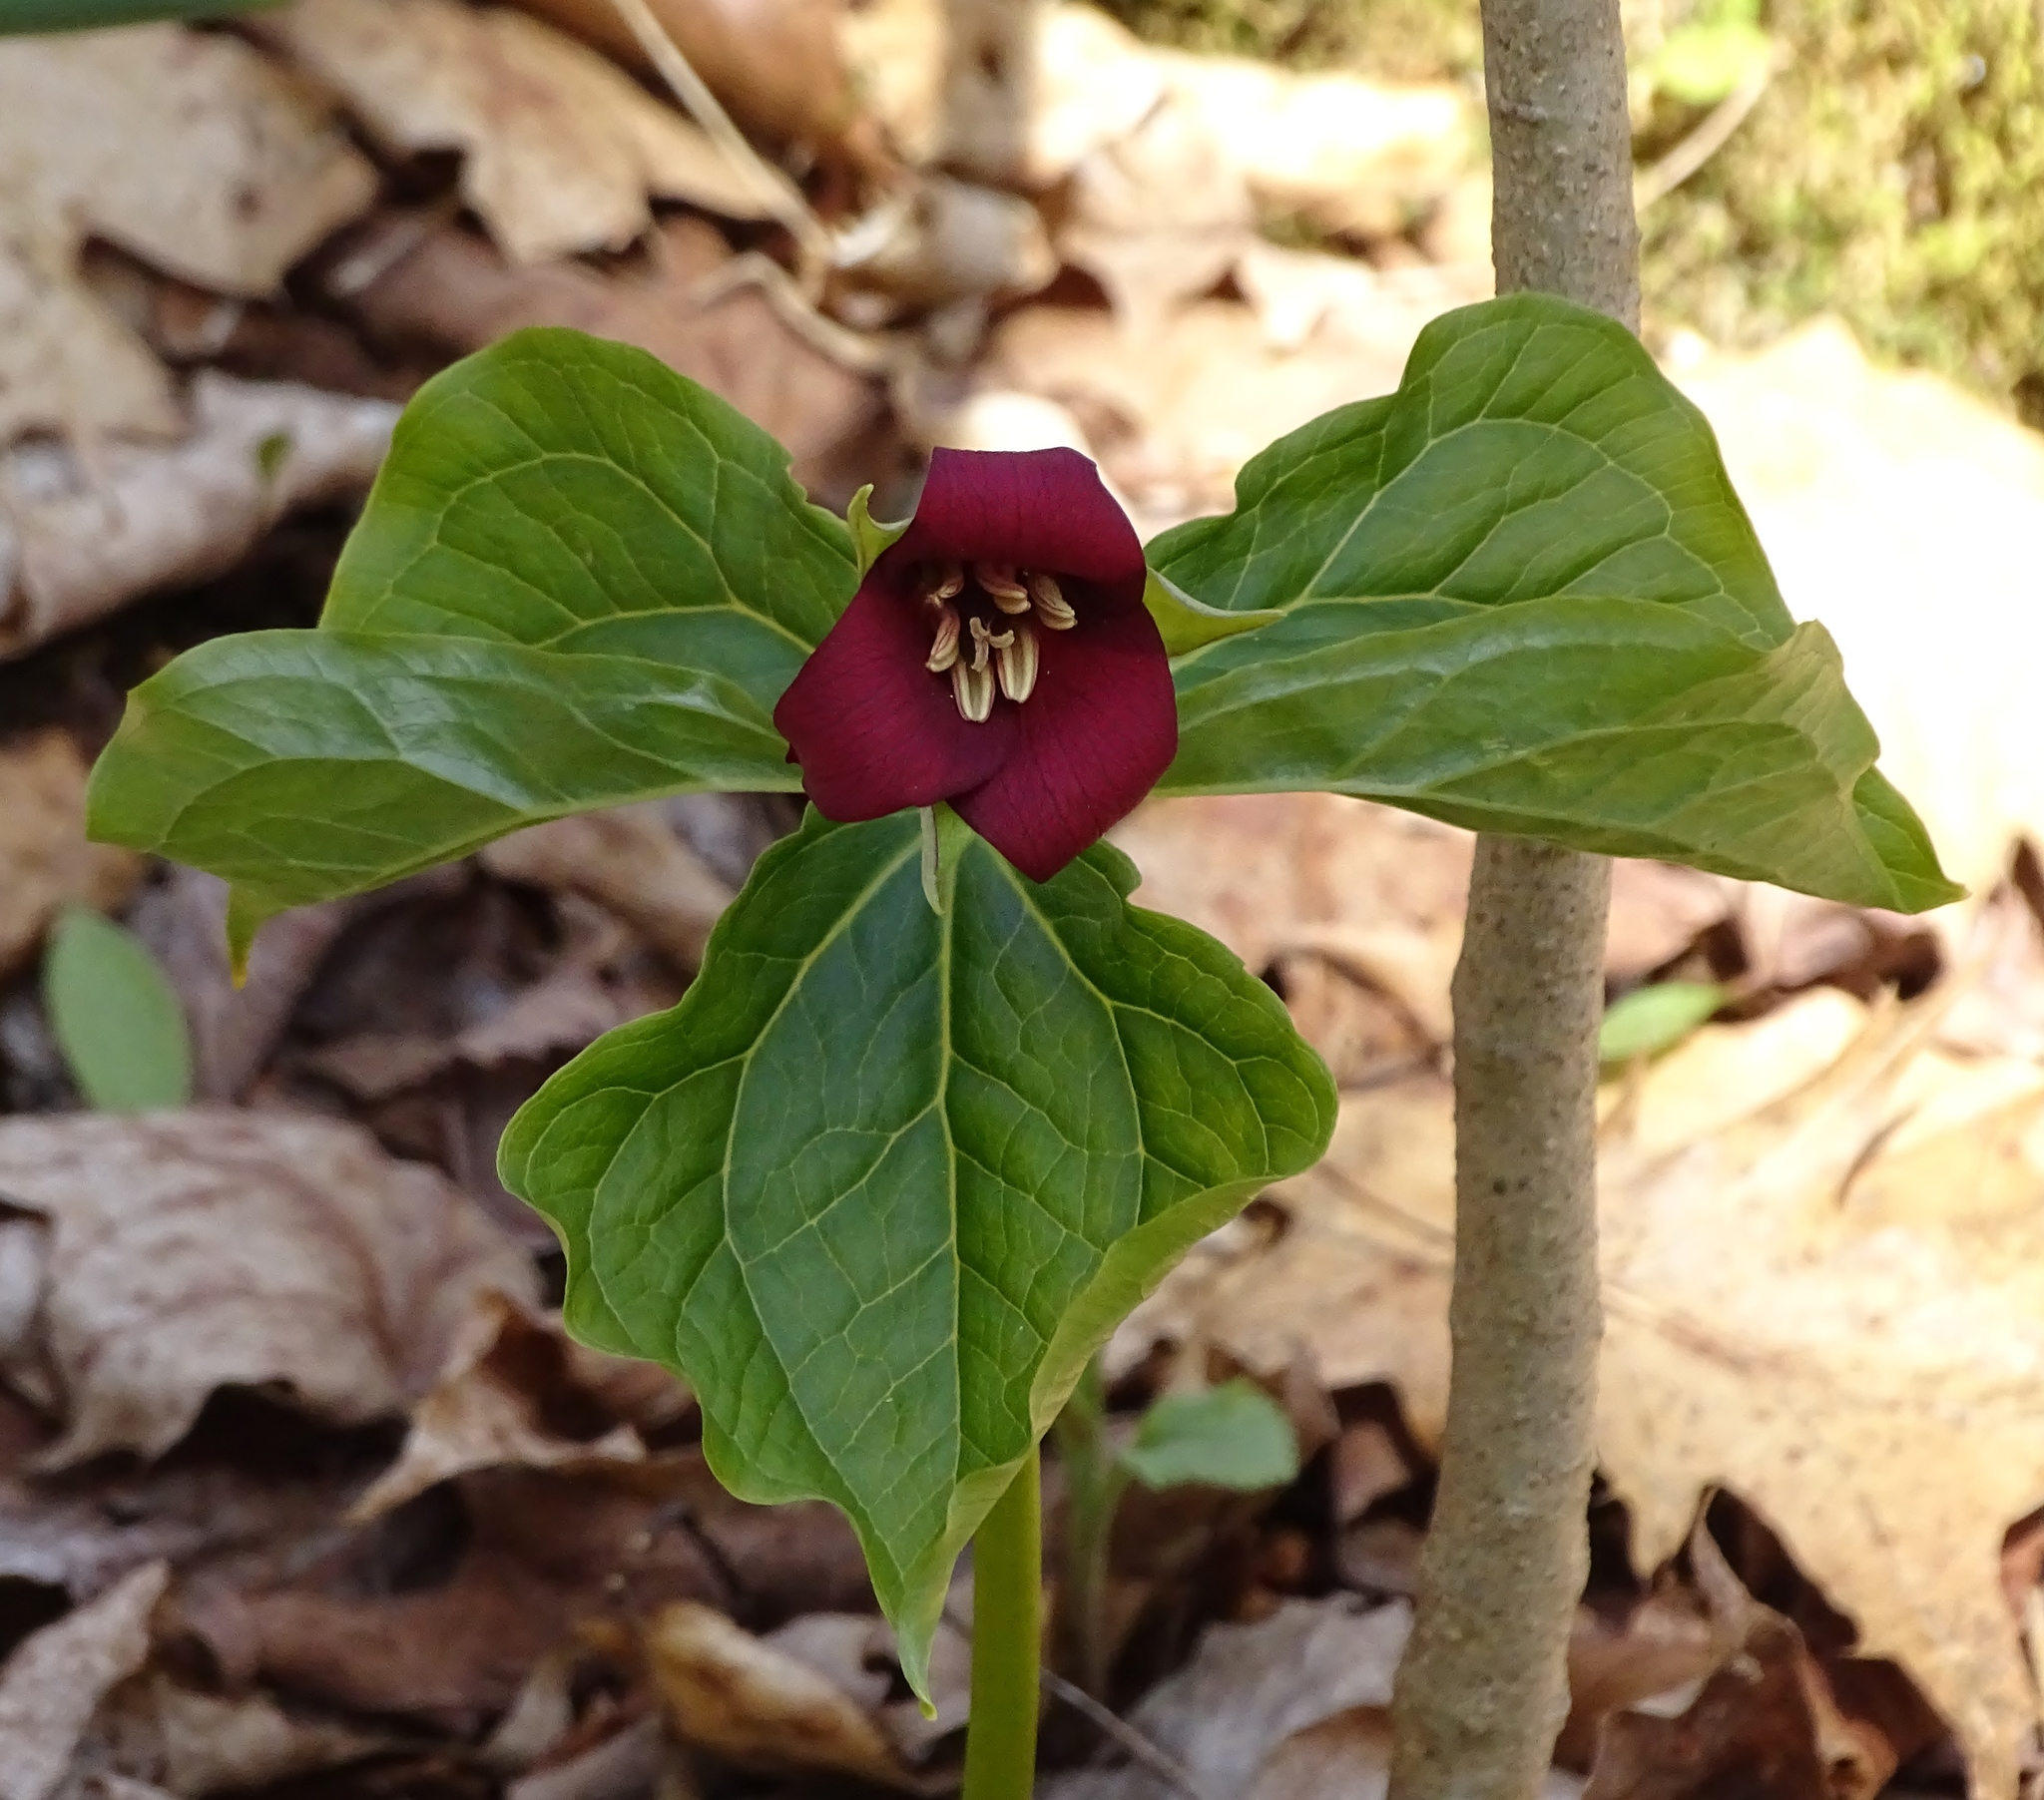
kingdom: Plantae
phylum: Tracheophyta
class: Liliopsida
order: Liliales
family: Melanthiaceae
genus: Trillium
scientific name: Trillium erectum
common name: Purple trillium
